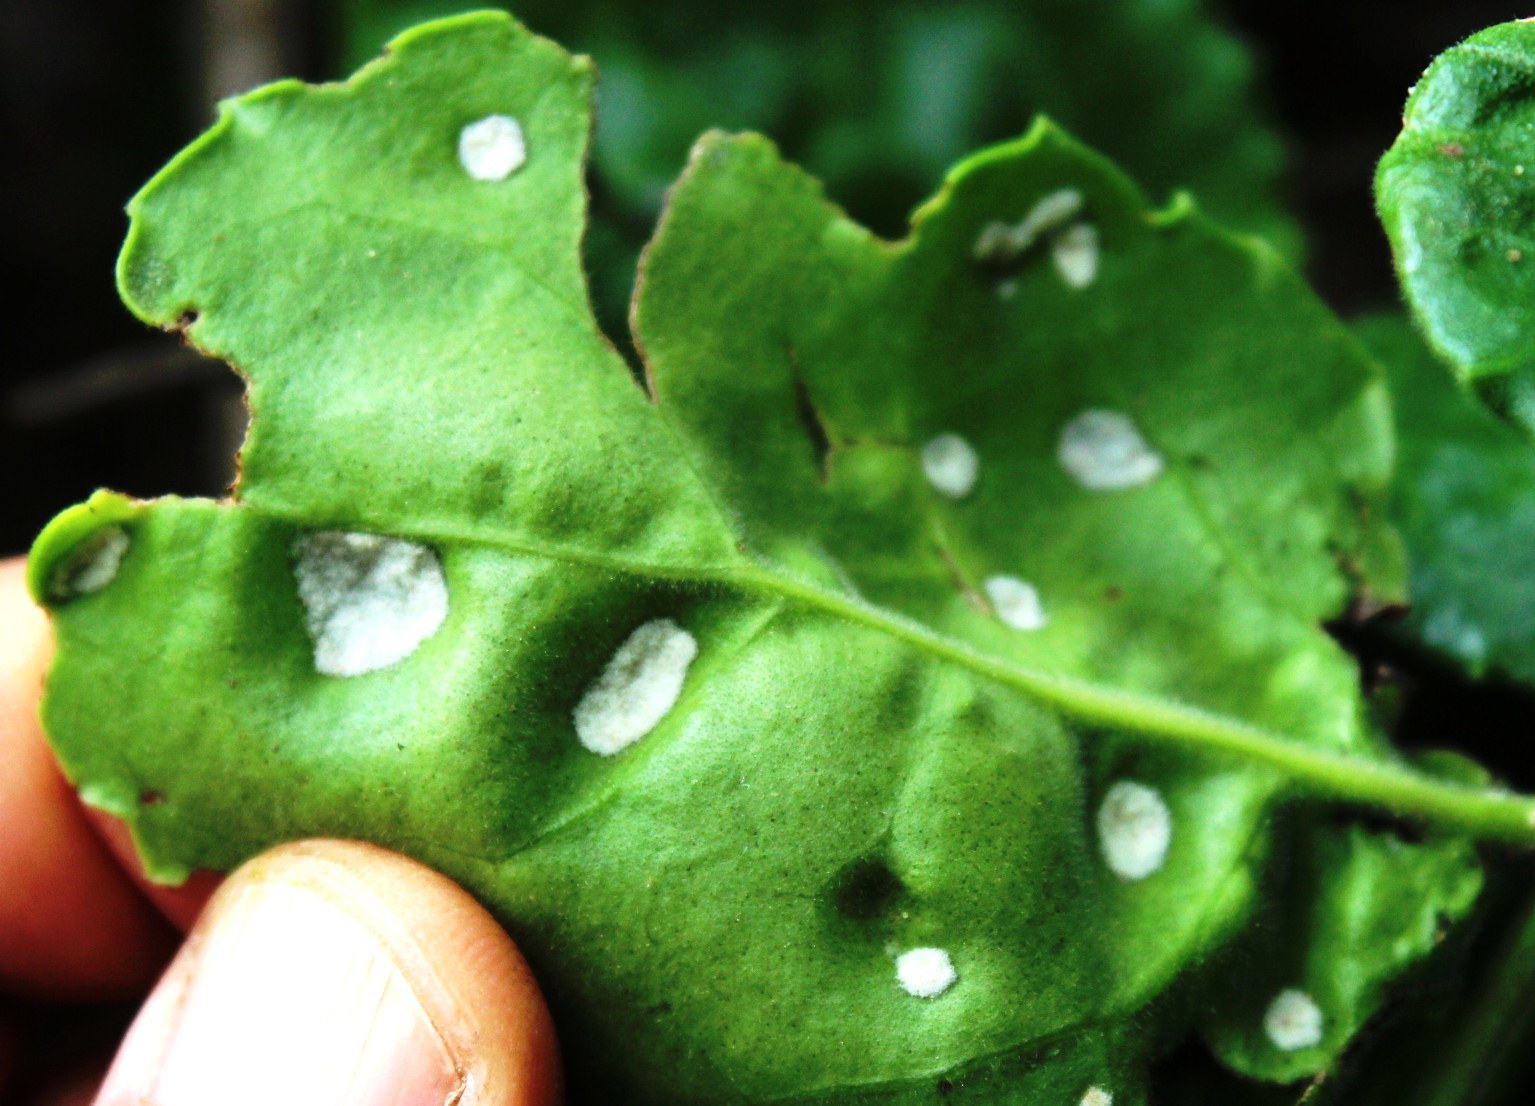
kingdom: Animalia
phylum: Arthropoda
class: Arachnida
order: Trombidiformes
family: Eriophyidae
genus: Acalitus
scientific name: Acalitus
